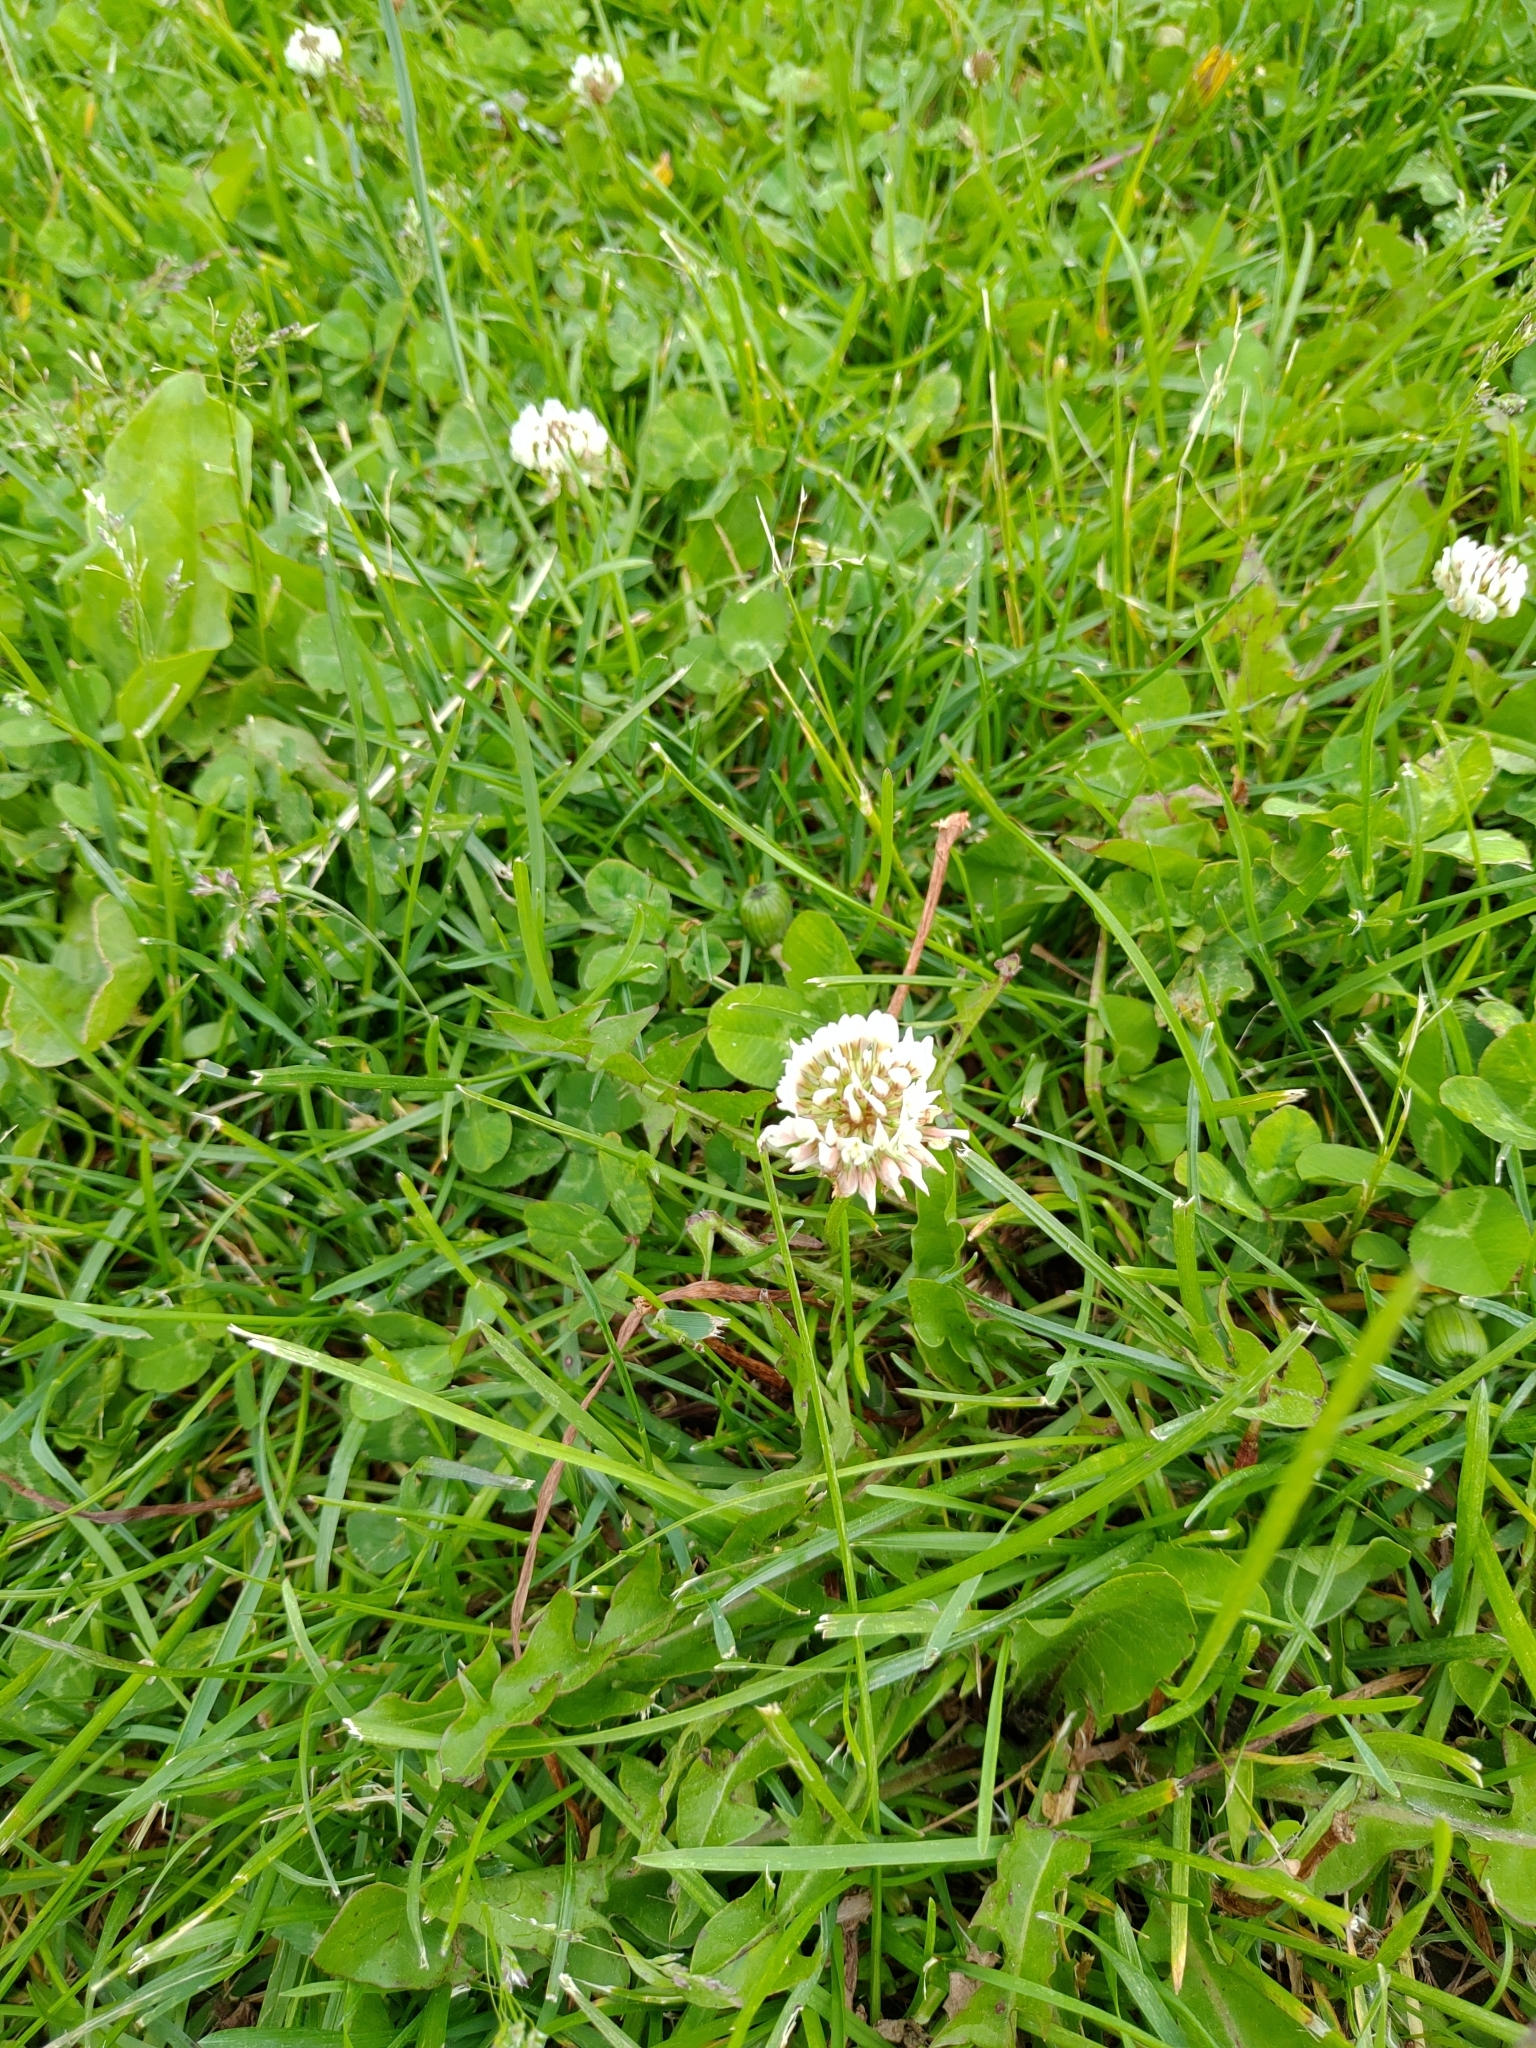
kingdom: Plantae
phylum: Tracheophyta
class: Magnoliopsida
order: Fabales
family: Fabaceae
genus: Trifolium
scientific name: Trifolium repens
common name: White clover
